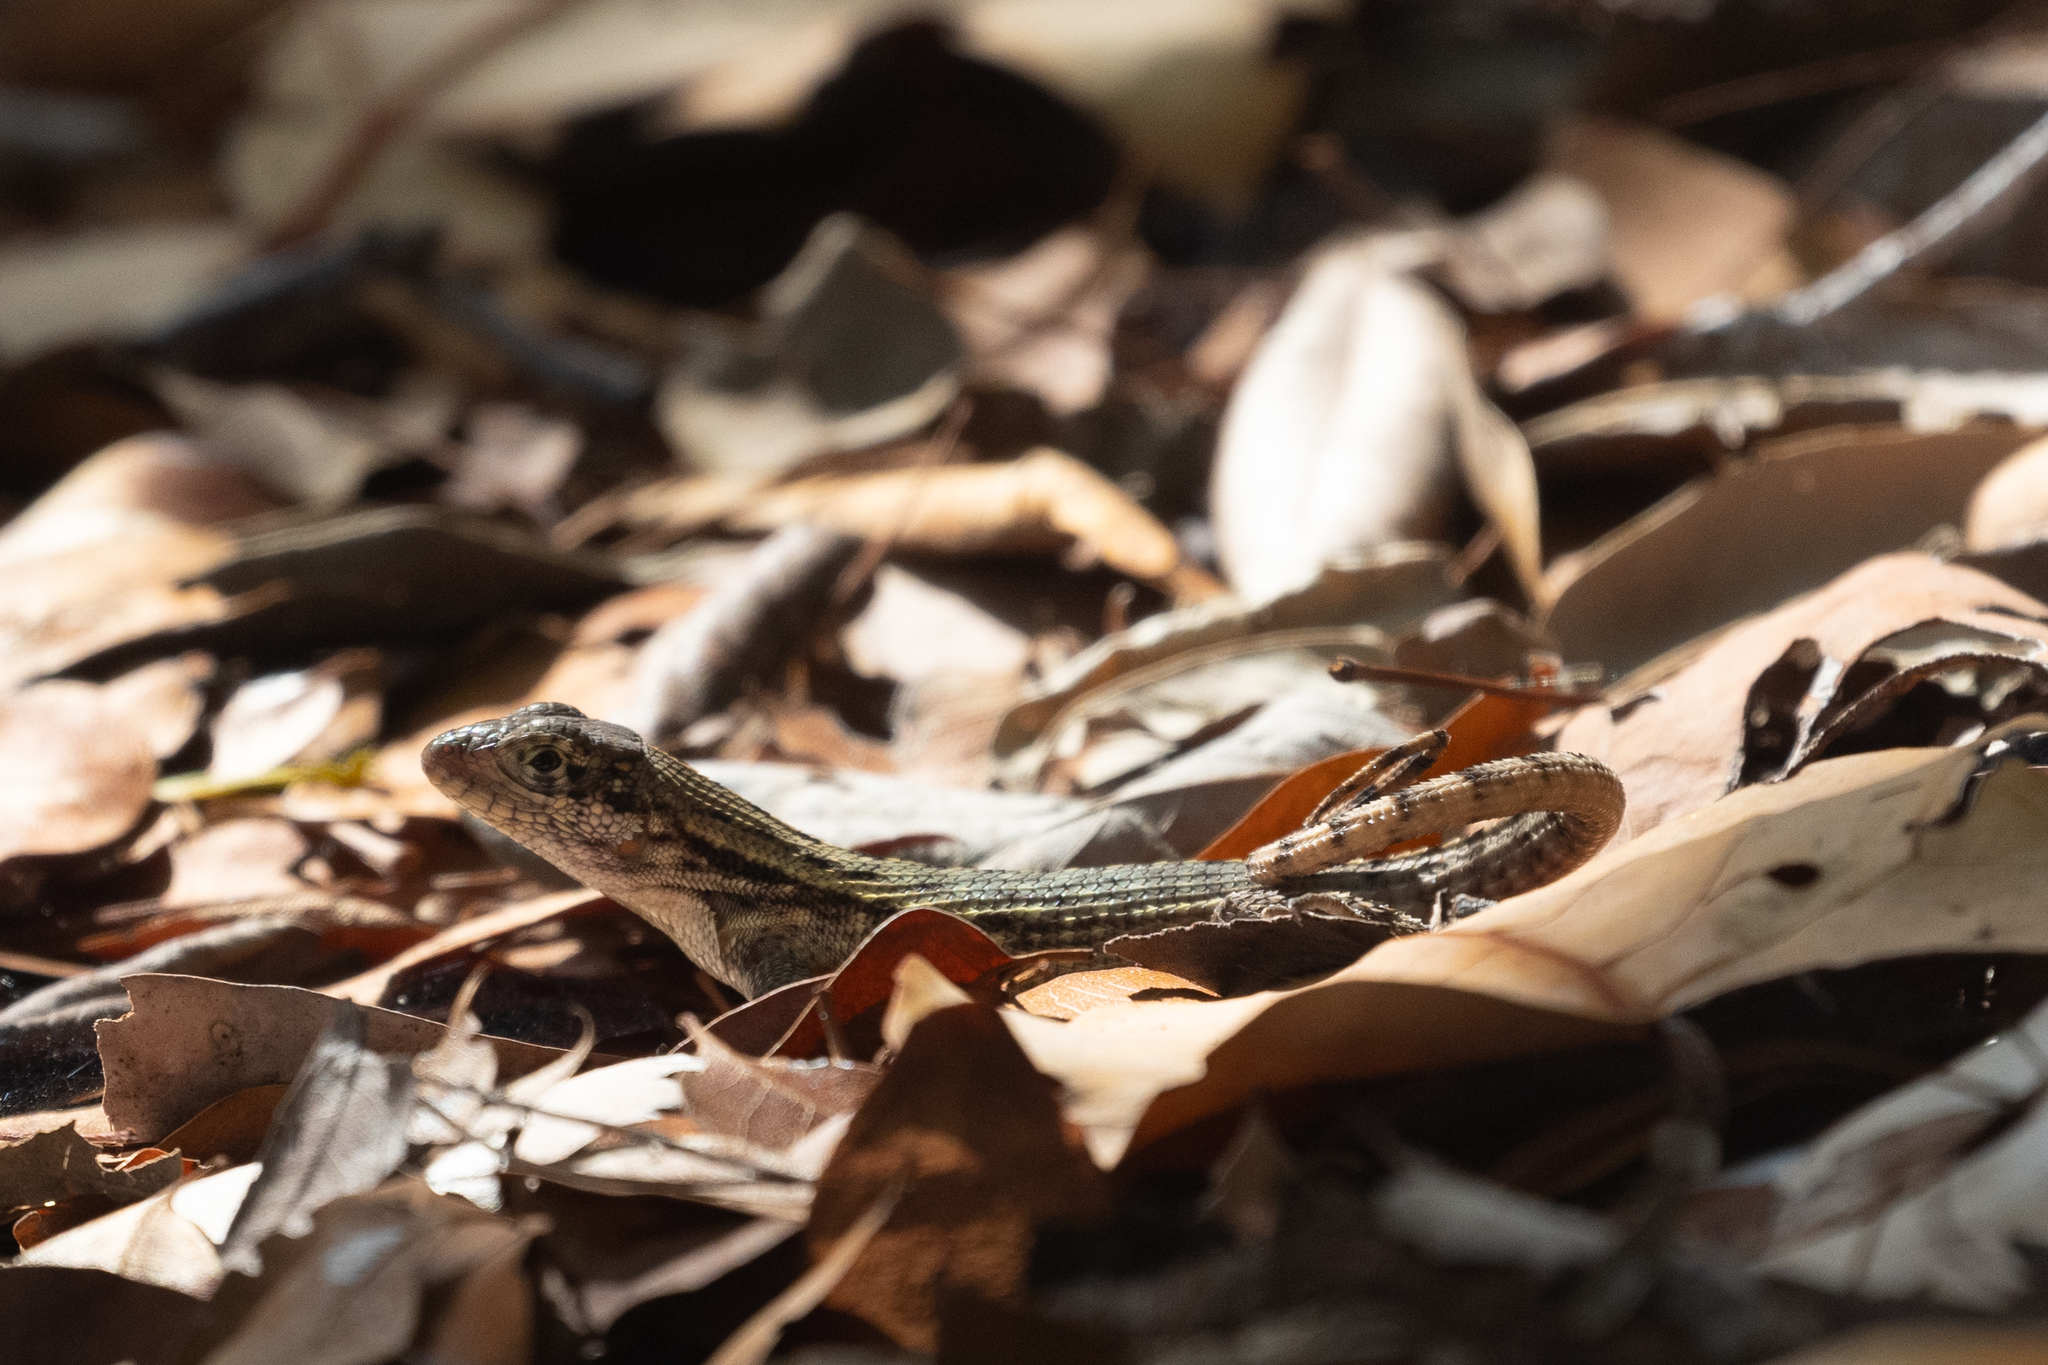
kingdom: Animalia
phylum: Chordata
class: Squamata
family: Leiocephalidae
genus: Leiocephalus
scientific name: Leiocephalus carinatus
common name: Northern curly-tailed lizard
